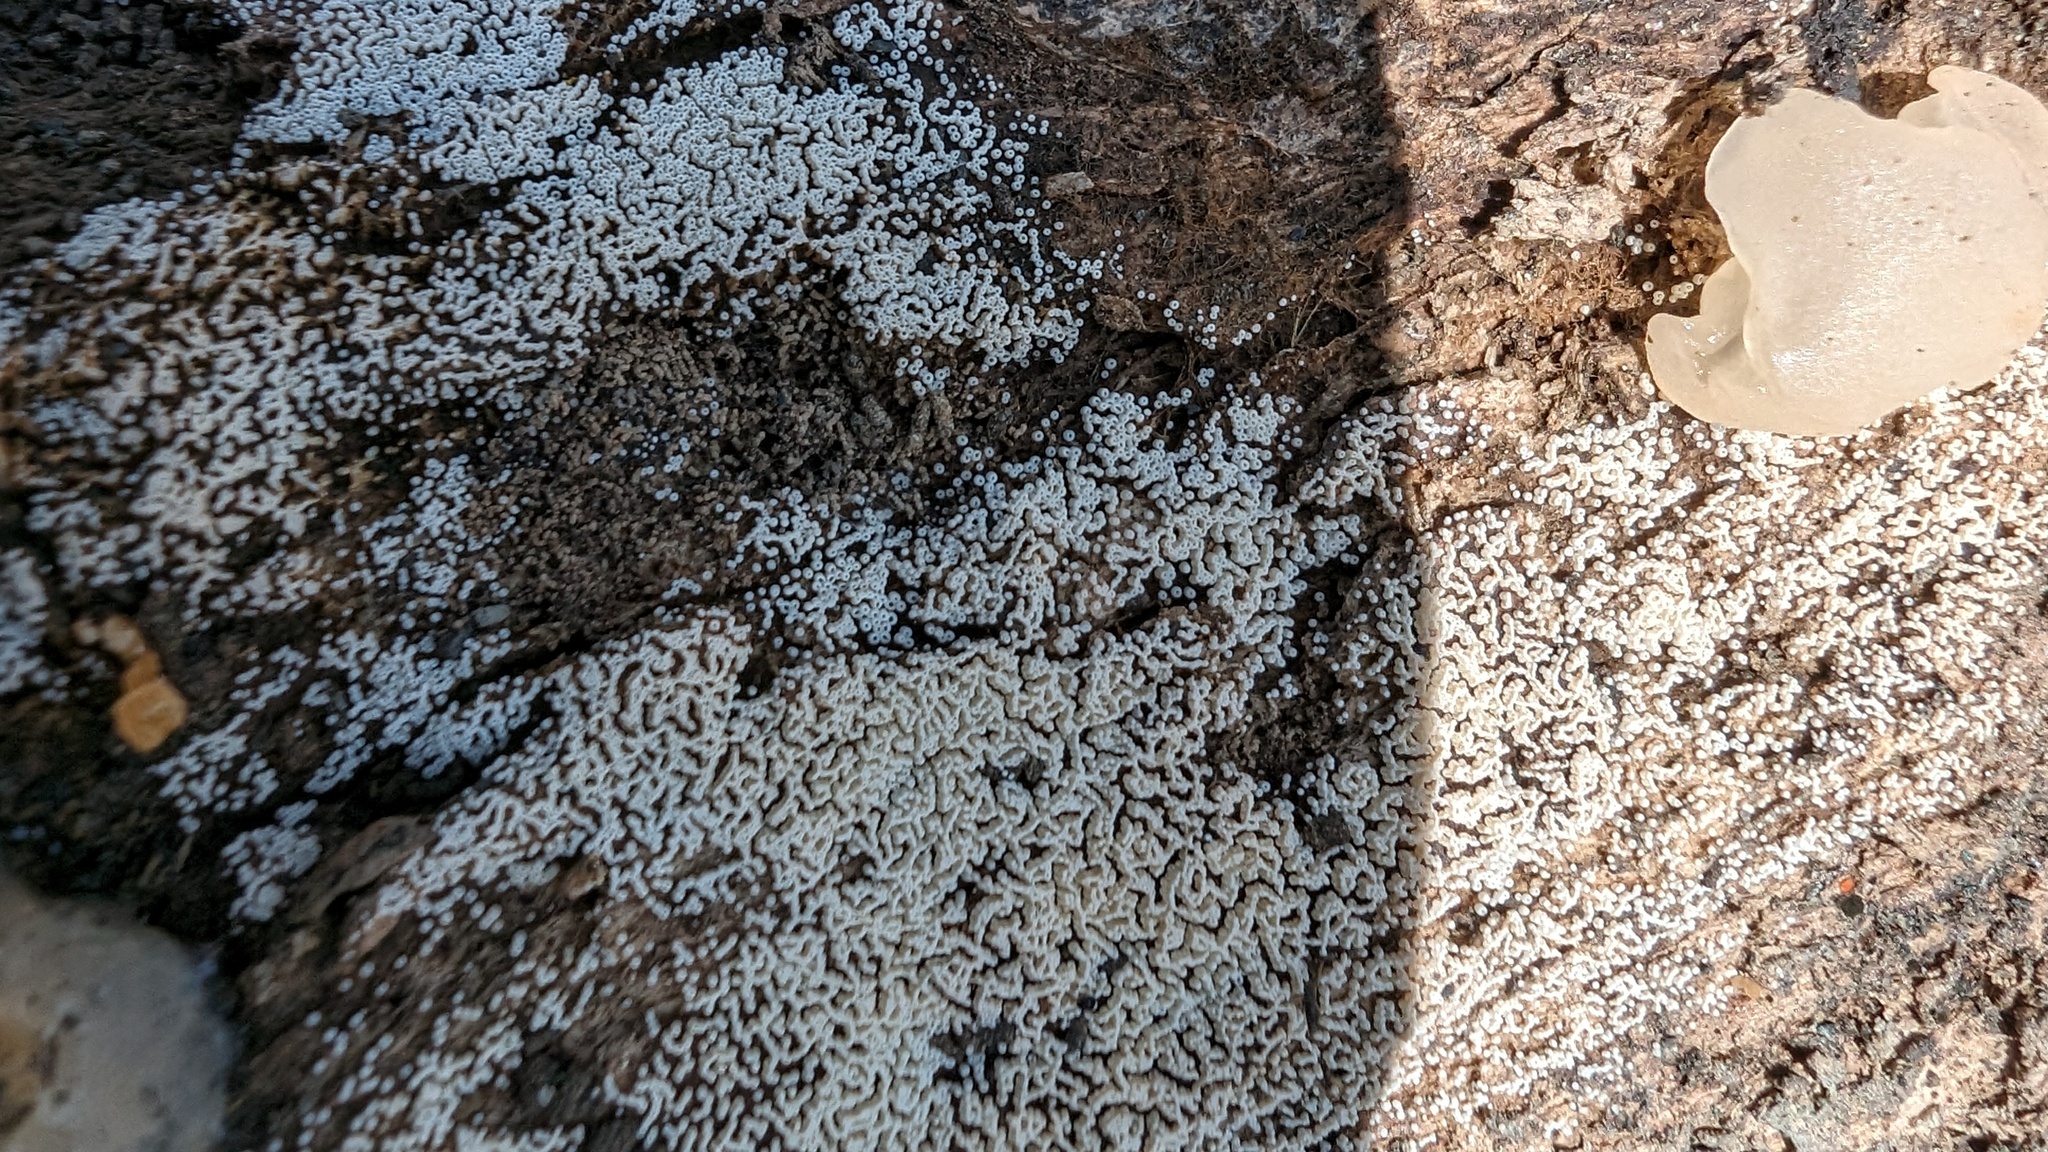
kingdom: Fungi
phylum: Basidiomycota
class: Agaricomycetes
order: Agaricales
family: Marasmiaceae
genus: Henningsomyces
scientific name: Henningsomyces candidus
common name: White tubelet
